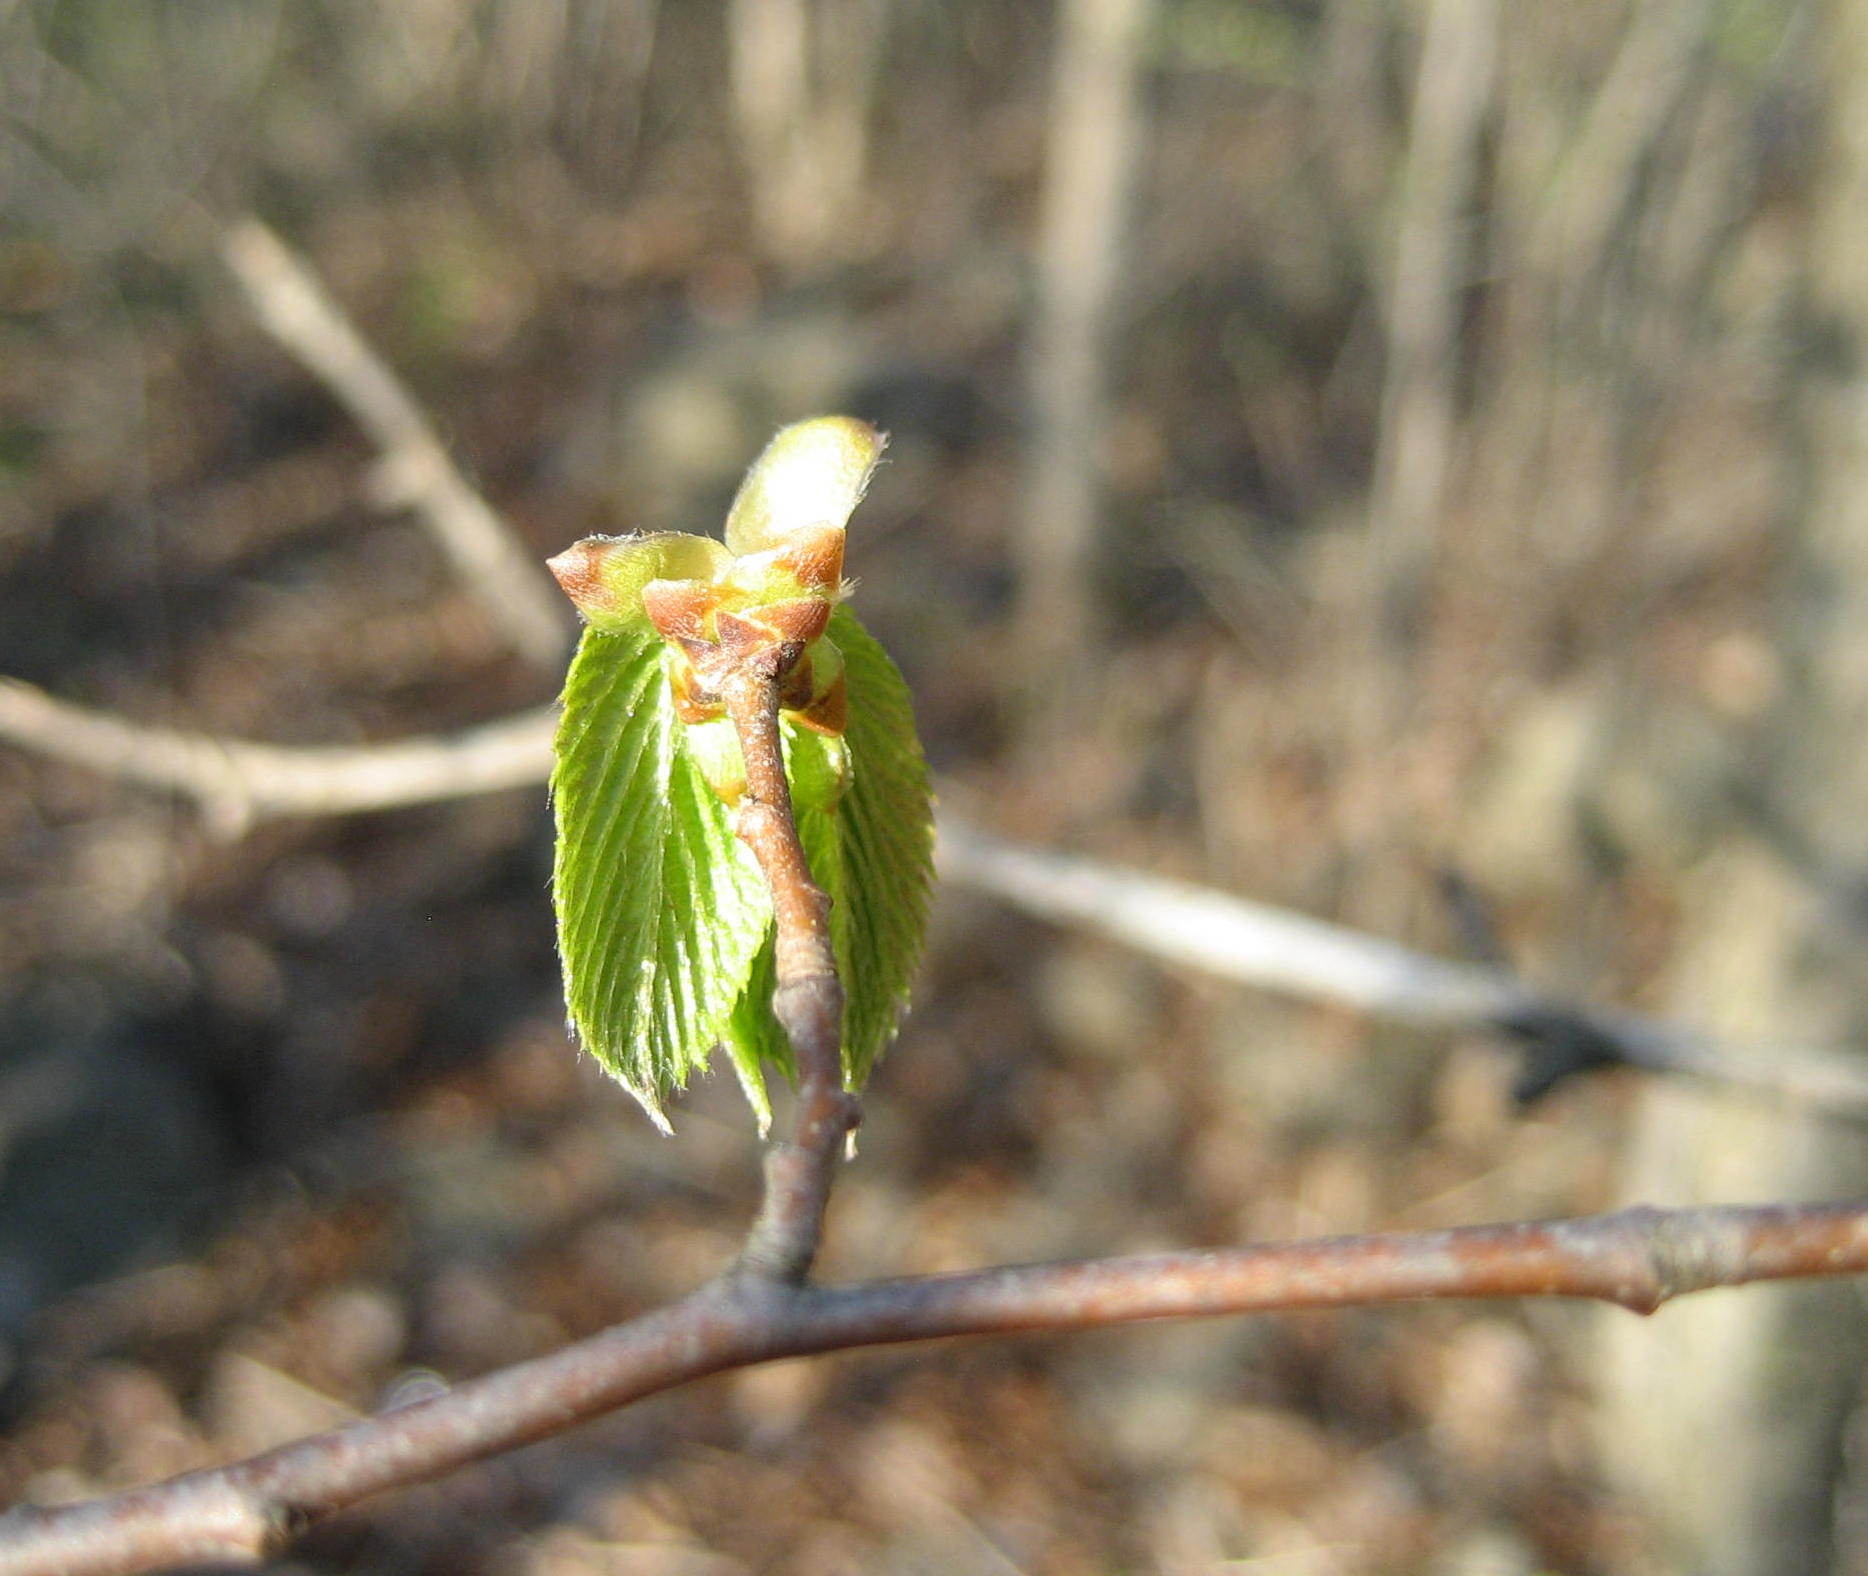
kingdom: Plantae
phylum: Tracheophyta
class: Magnoliopsida
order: Fagales
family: Betulaceae
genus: Ostrya
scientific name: Ostrya virginiana
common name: Ironwood
